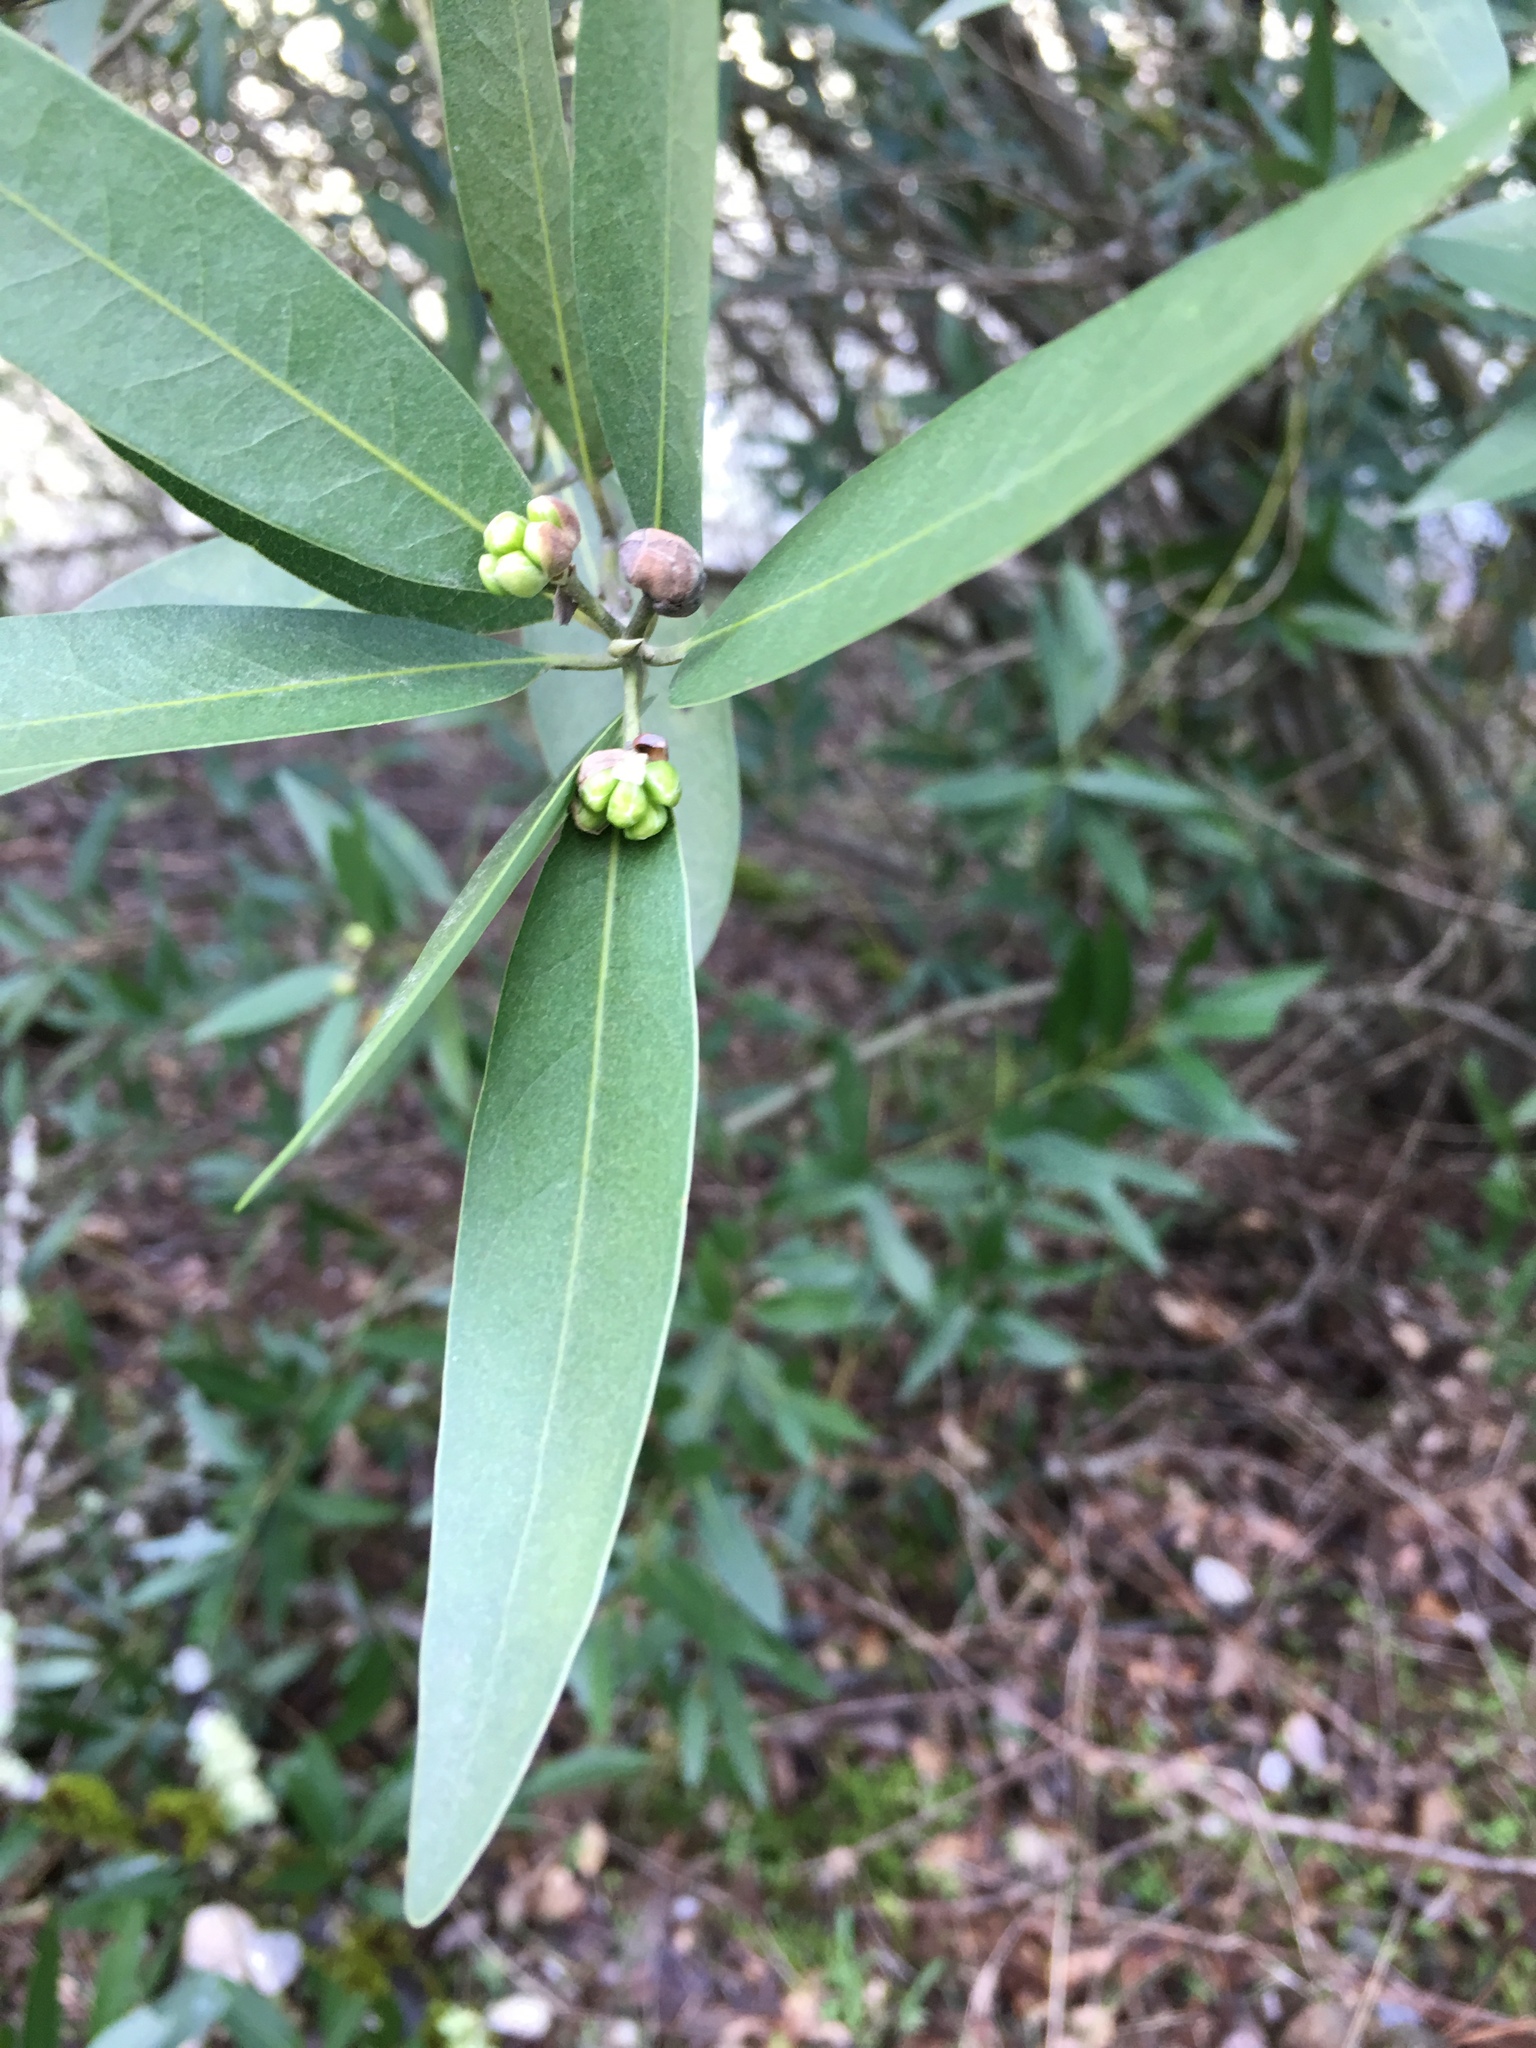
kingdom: Plantae
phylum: Tracheophyta
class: Magnoliopsida
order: Laurales
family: Lauraceae
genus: Umbellularia
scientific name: Umbellularia californica
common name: California bay
